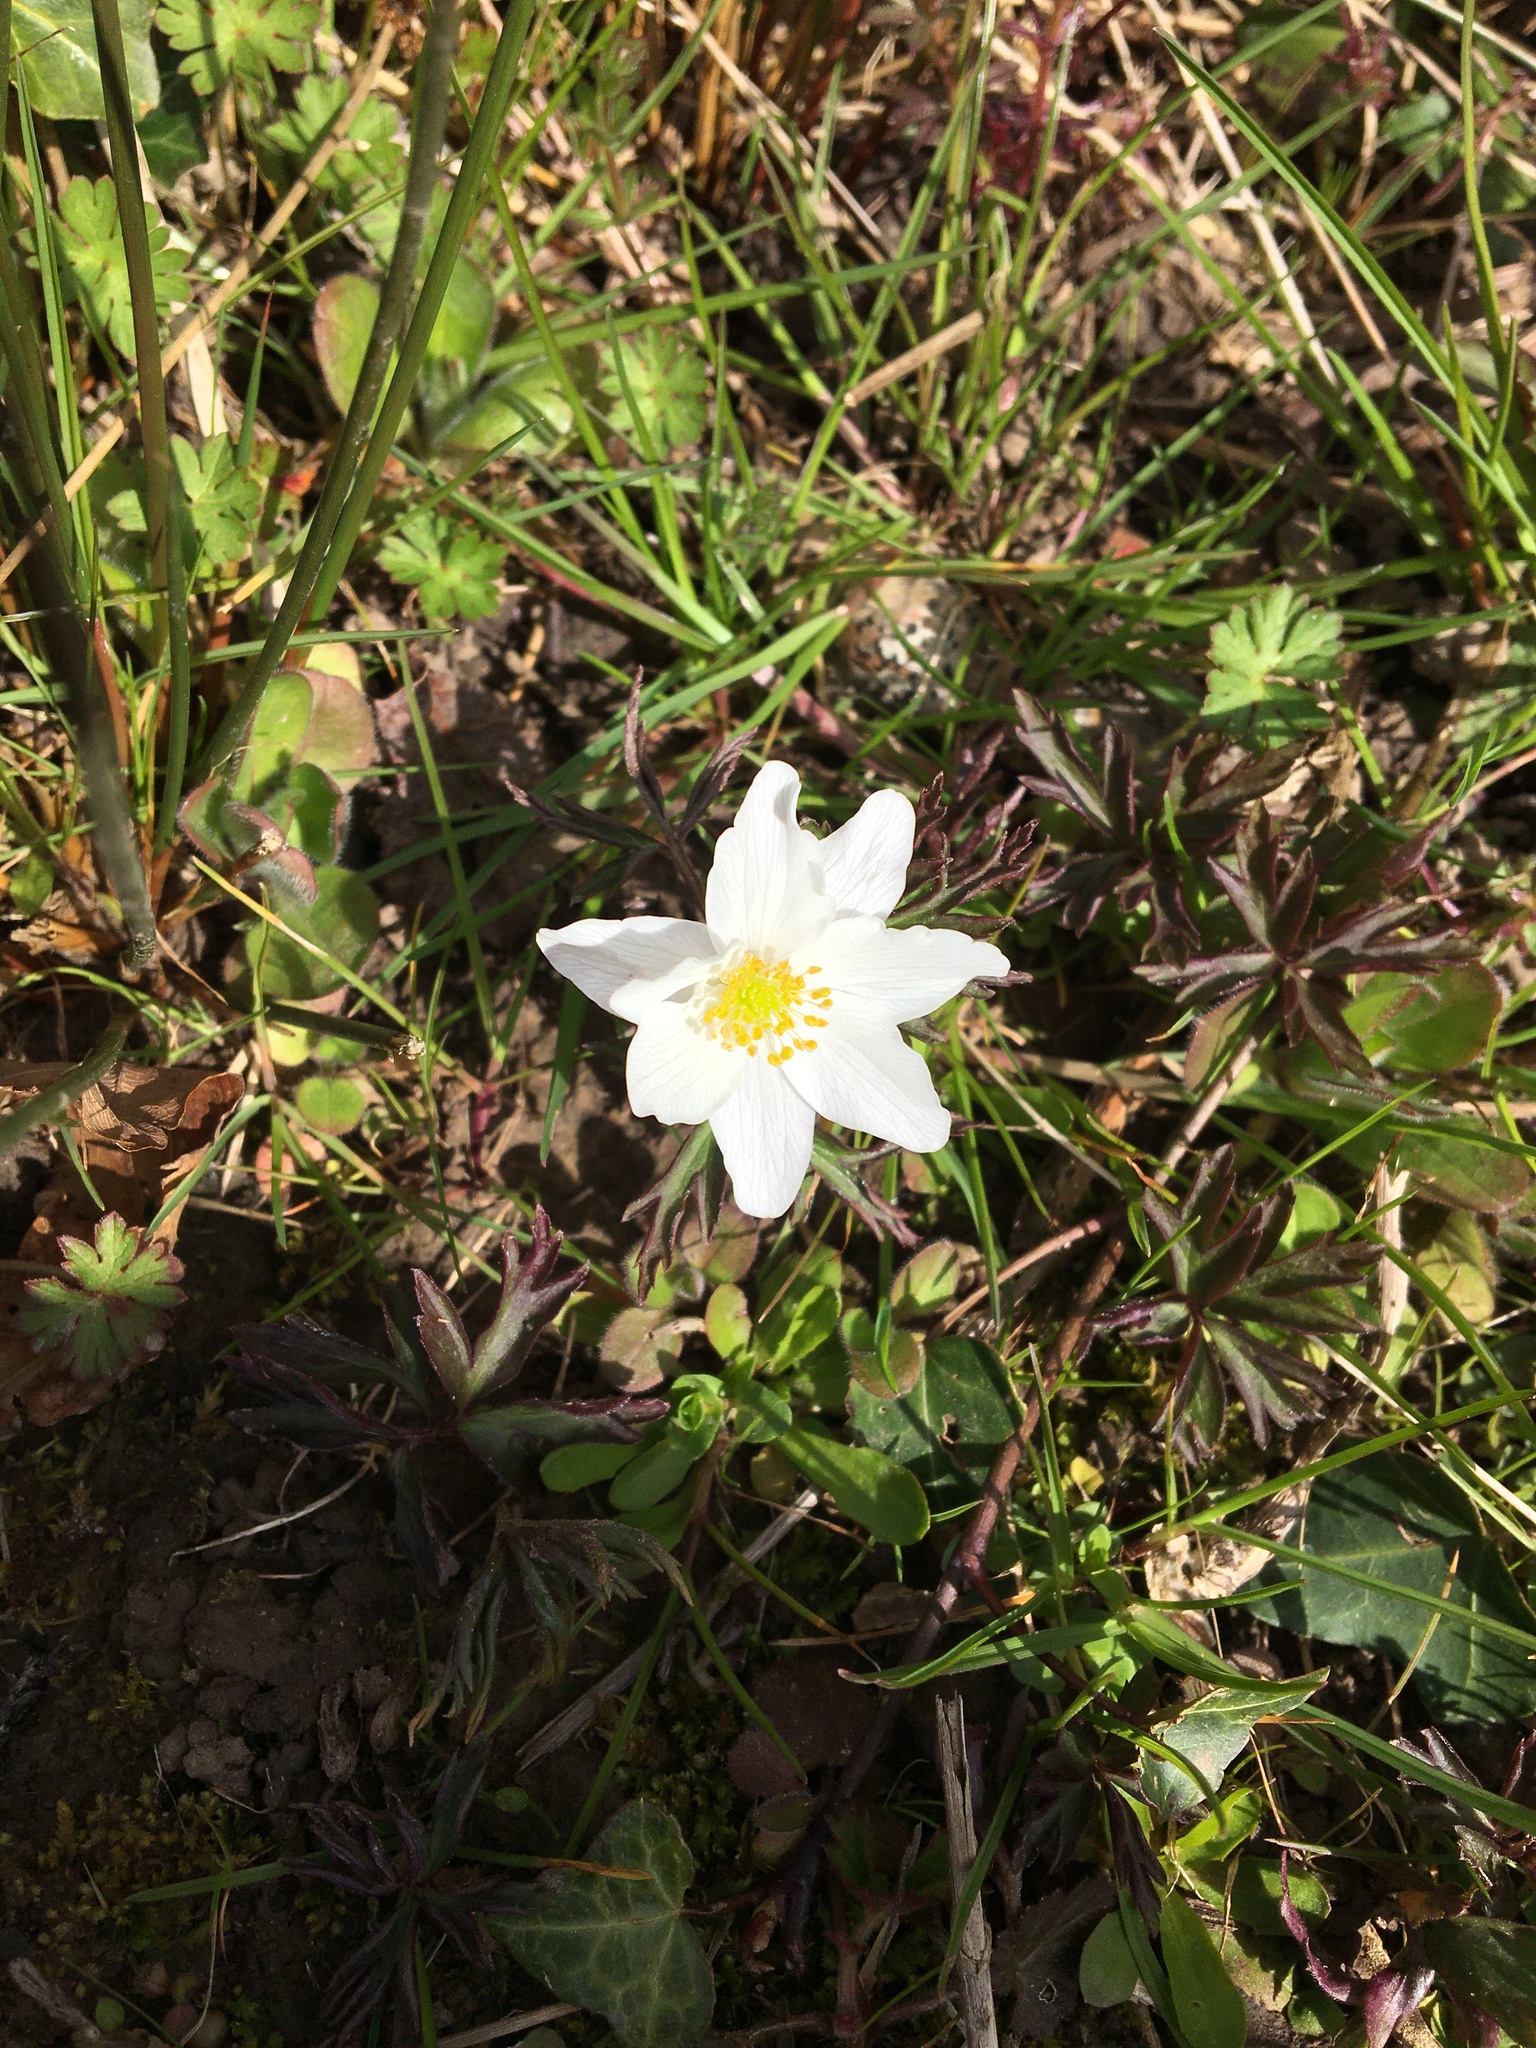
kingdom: Plantae
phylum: Tracheophyta
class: Magnoliopsida
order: Ranunculales
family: Ranunculaceae
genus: Anemone
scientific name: Anemone nemorosa
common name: Wood anemone
